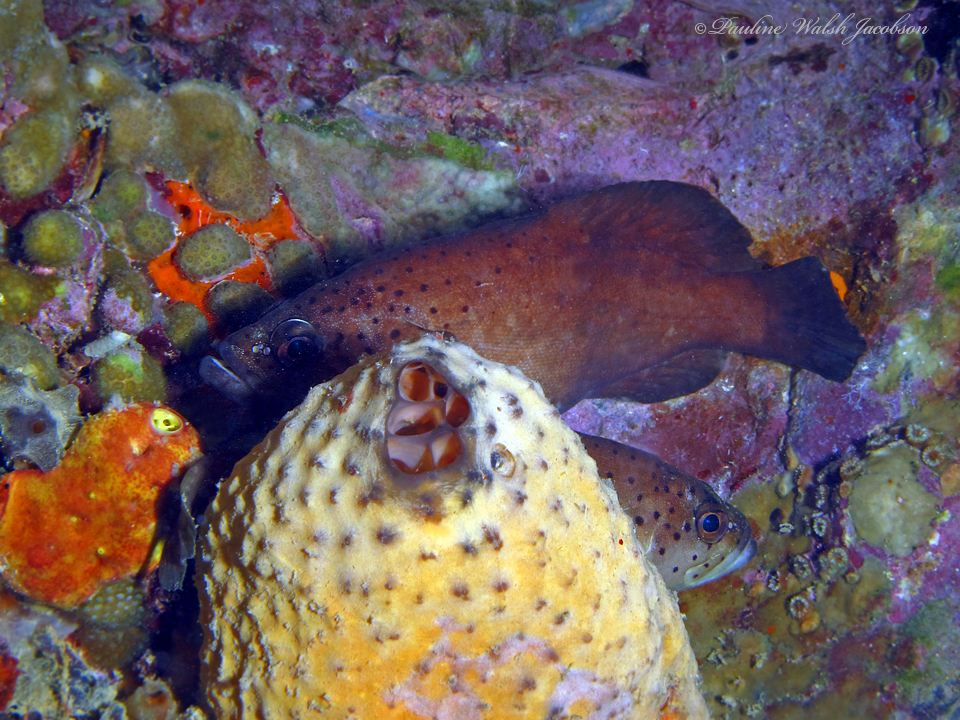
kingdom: Animalia
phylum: Chordata
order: Perciformes
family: Serranidae
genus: Rypticus
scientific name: Rypticus bistrispinus
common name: Freckled soapfish
